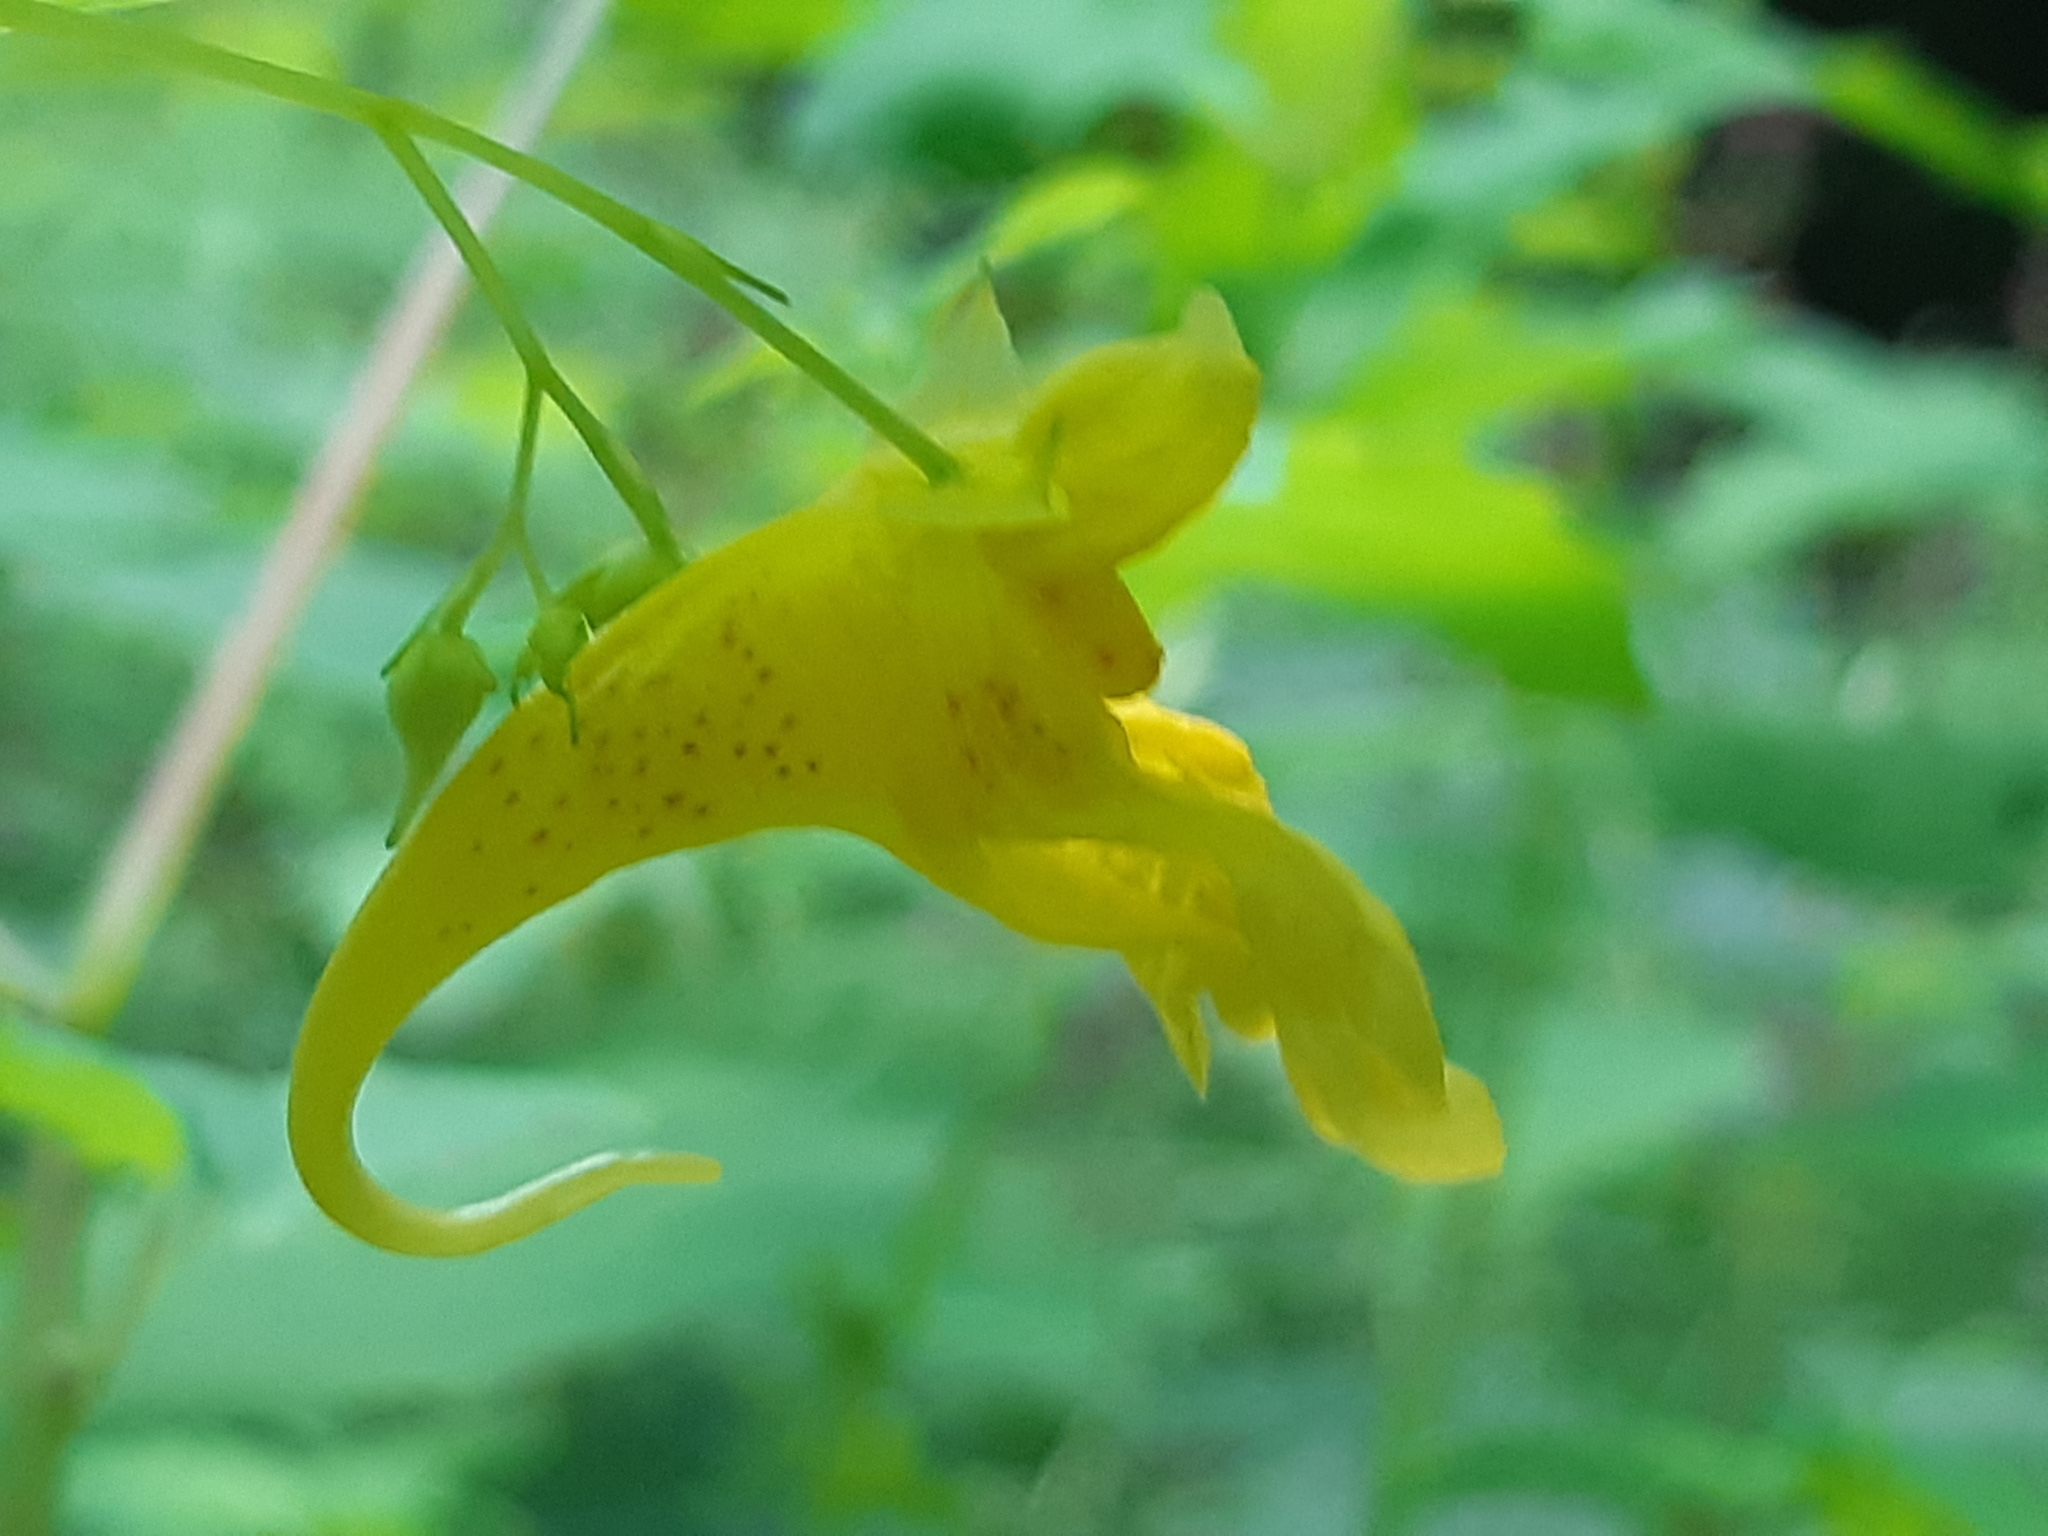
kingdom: Plantae
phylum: Tracheophyta
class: Magnoliopsida
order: Ericales
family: Balsaminaceae
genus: Impatiens
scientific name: Impatiens noli-tangere
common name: Touch-me-not balsam
